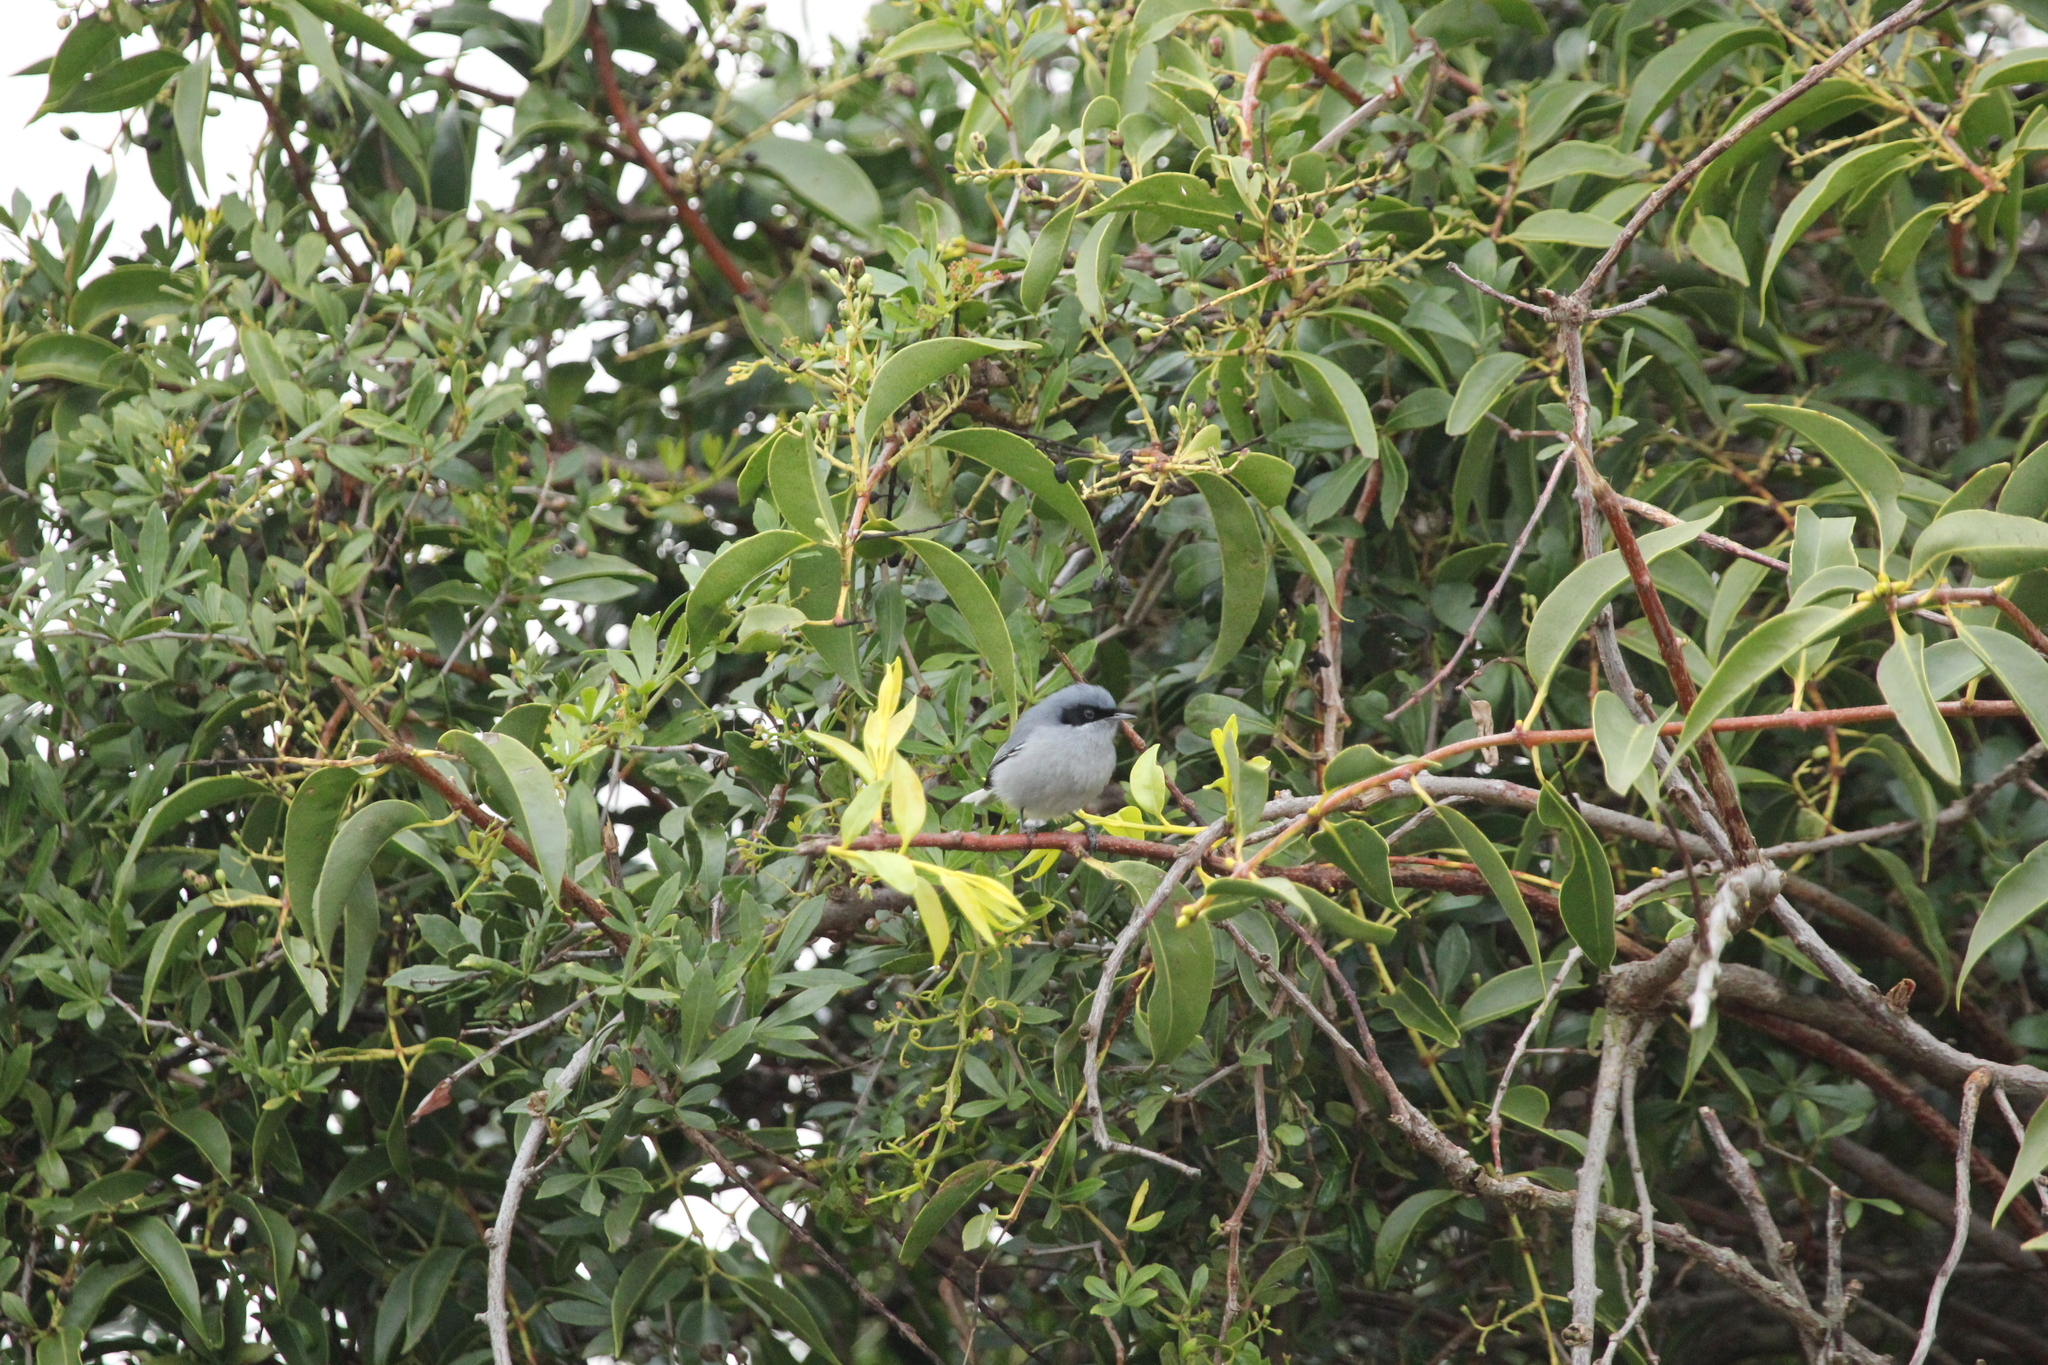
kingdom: Animalia
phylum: Chordata
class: Aves
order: Passeriformes
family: Polioptilidae
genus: Polioptila
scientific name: Polioptila dumicola
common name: Masked gnatcatcher
